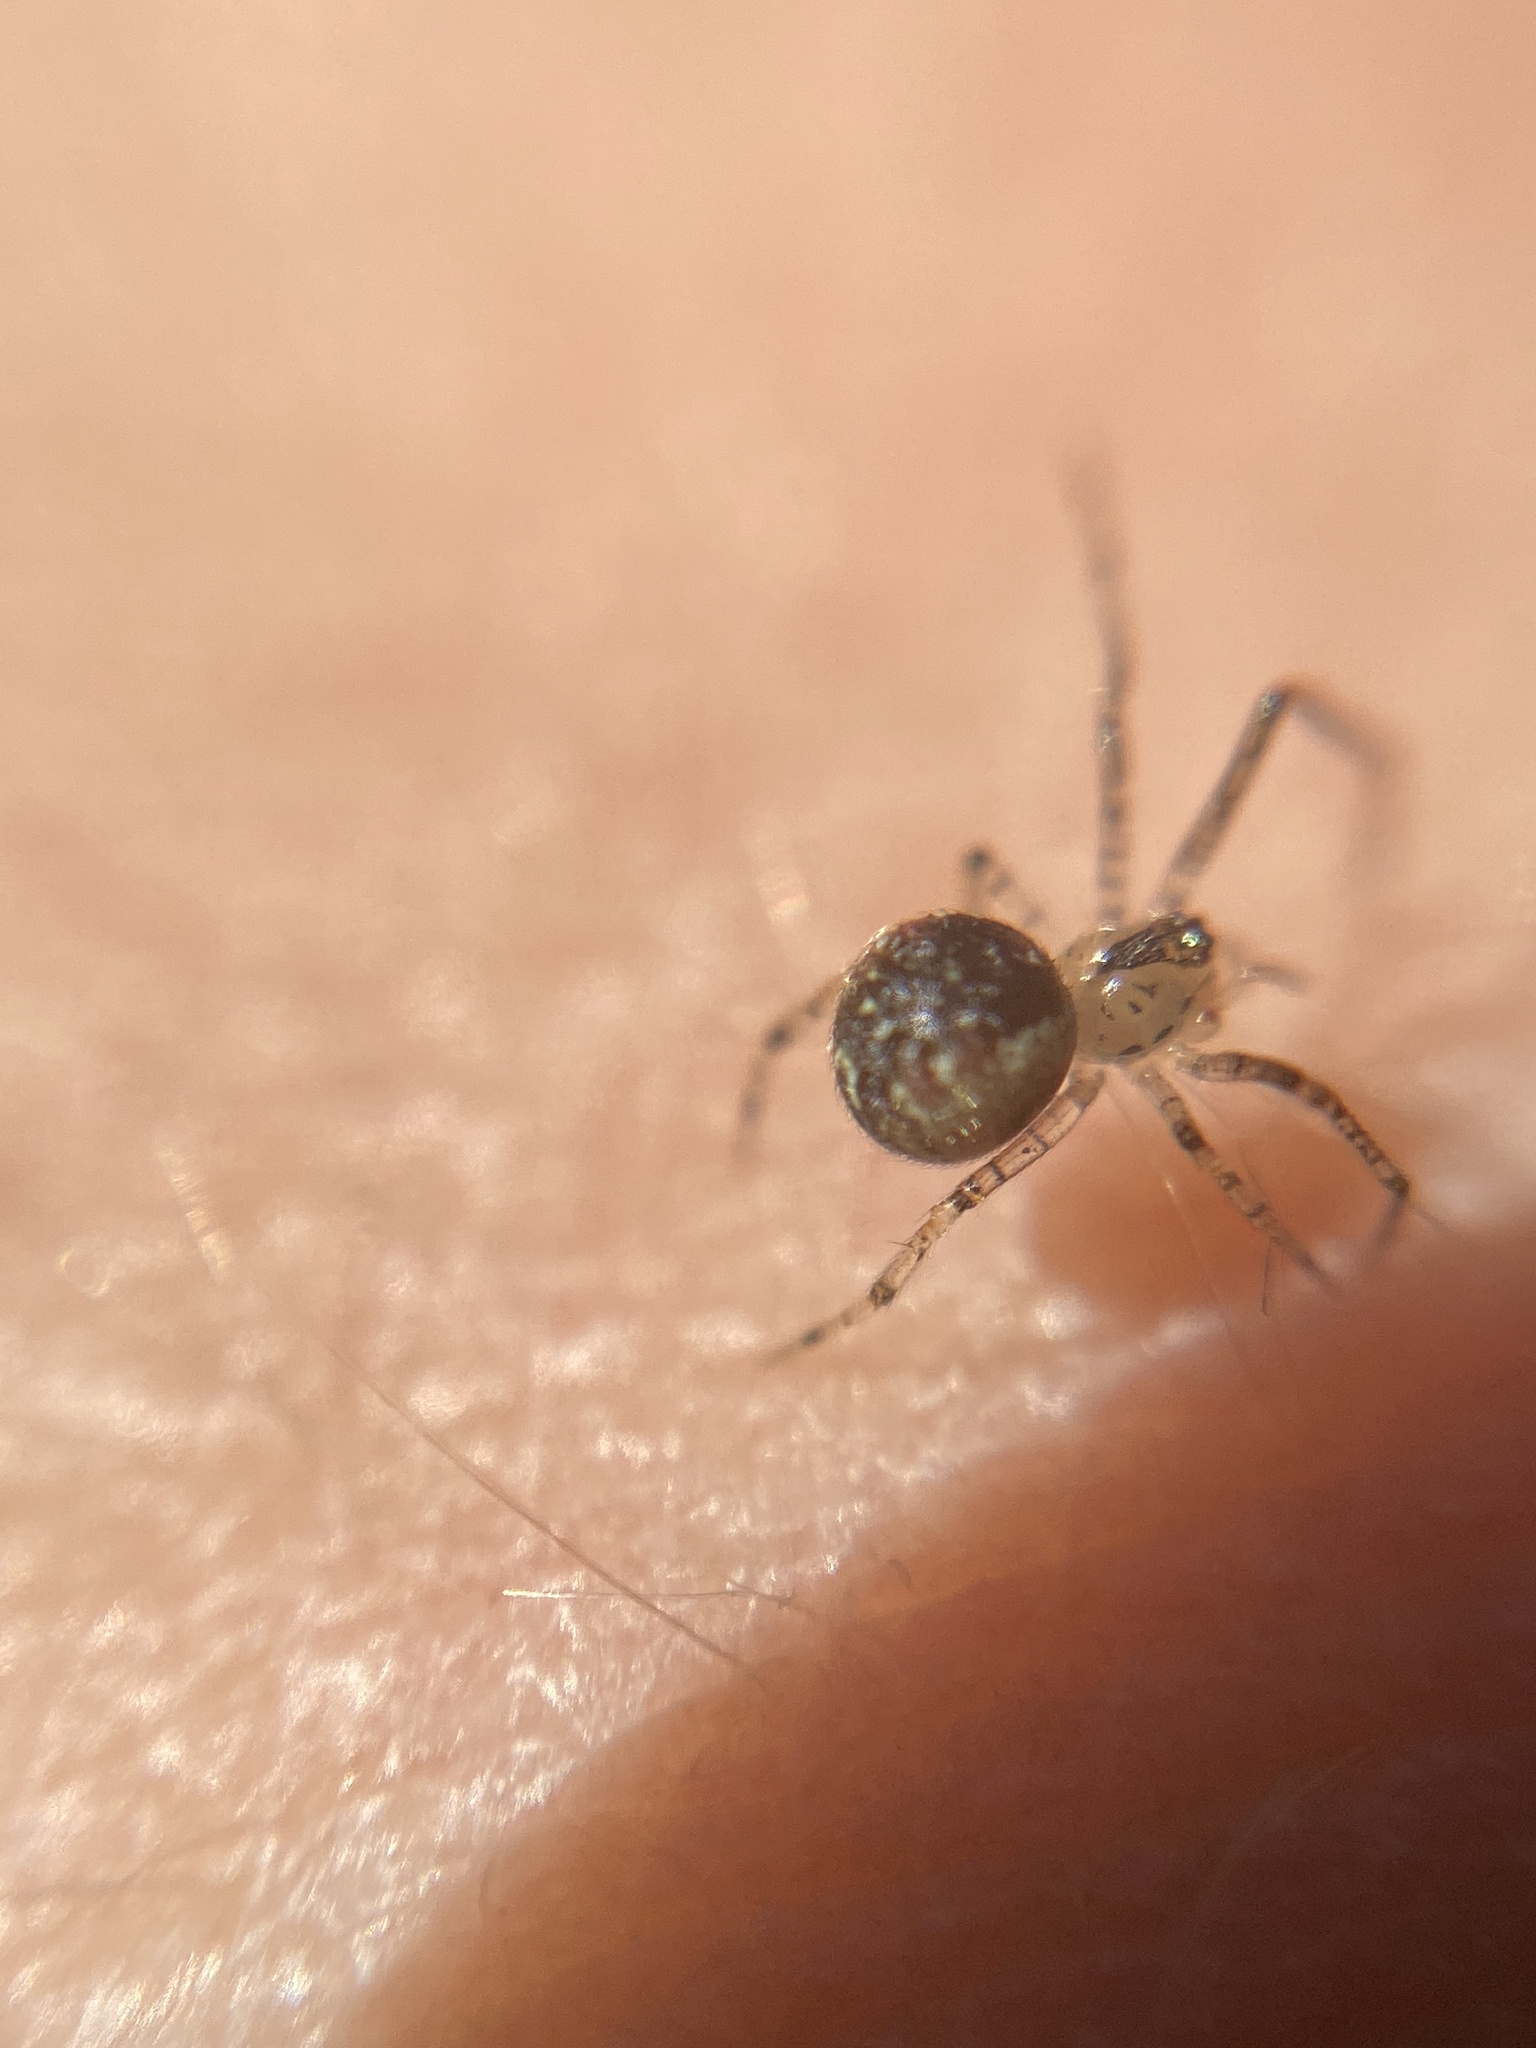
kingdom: Animalia
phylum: Arthropoda
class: Arachnida
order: Araneae
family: Theridiidae
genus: Platnickina
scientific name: Platnickina tincta
